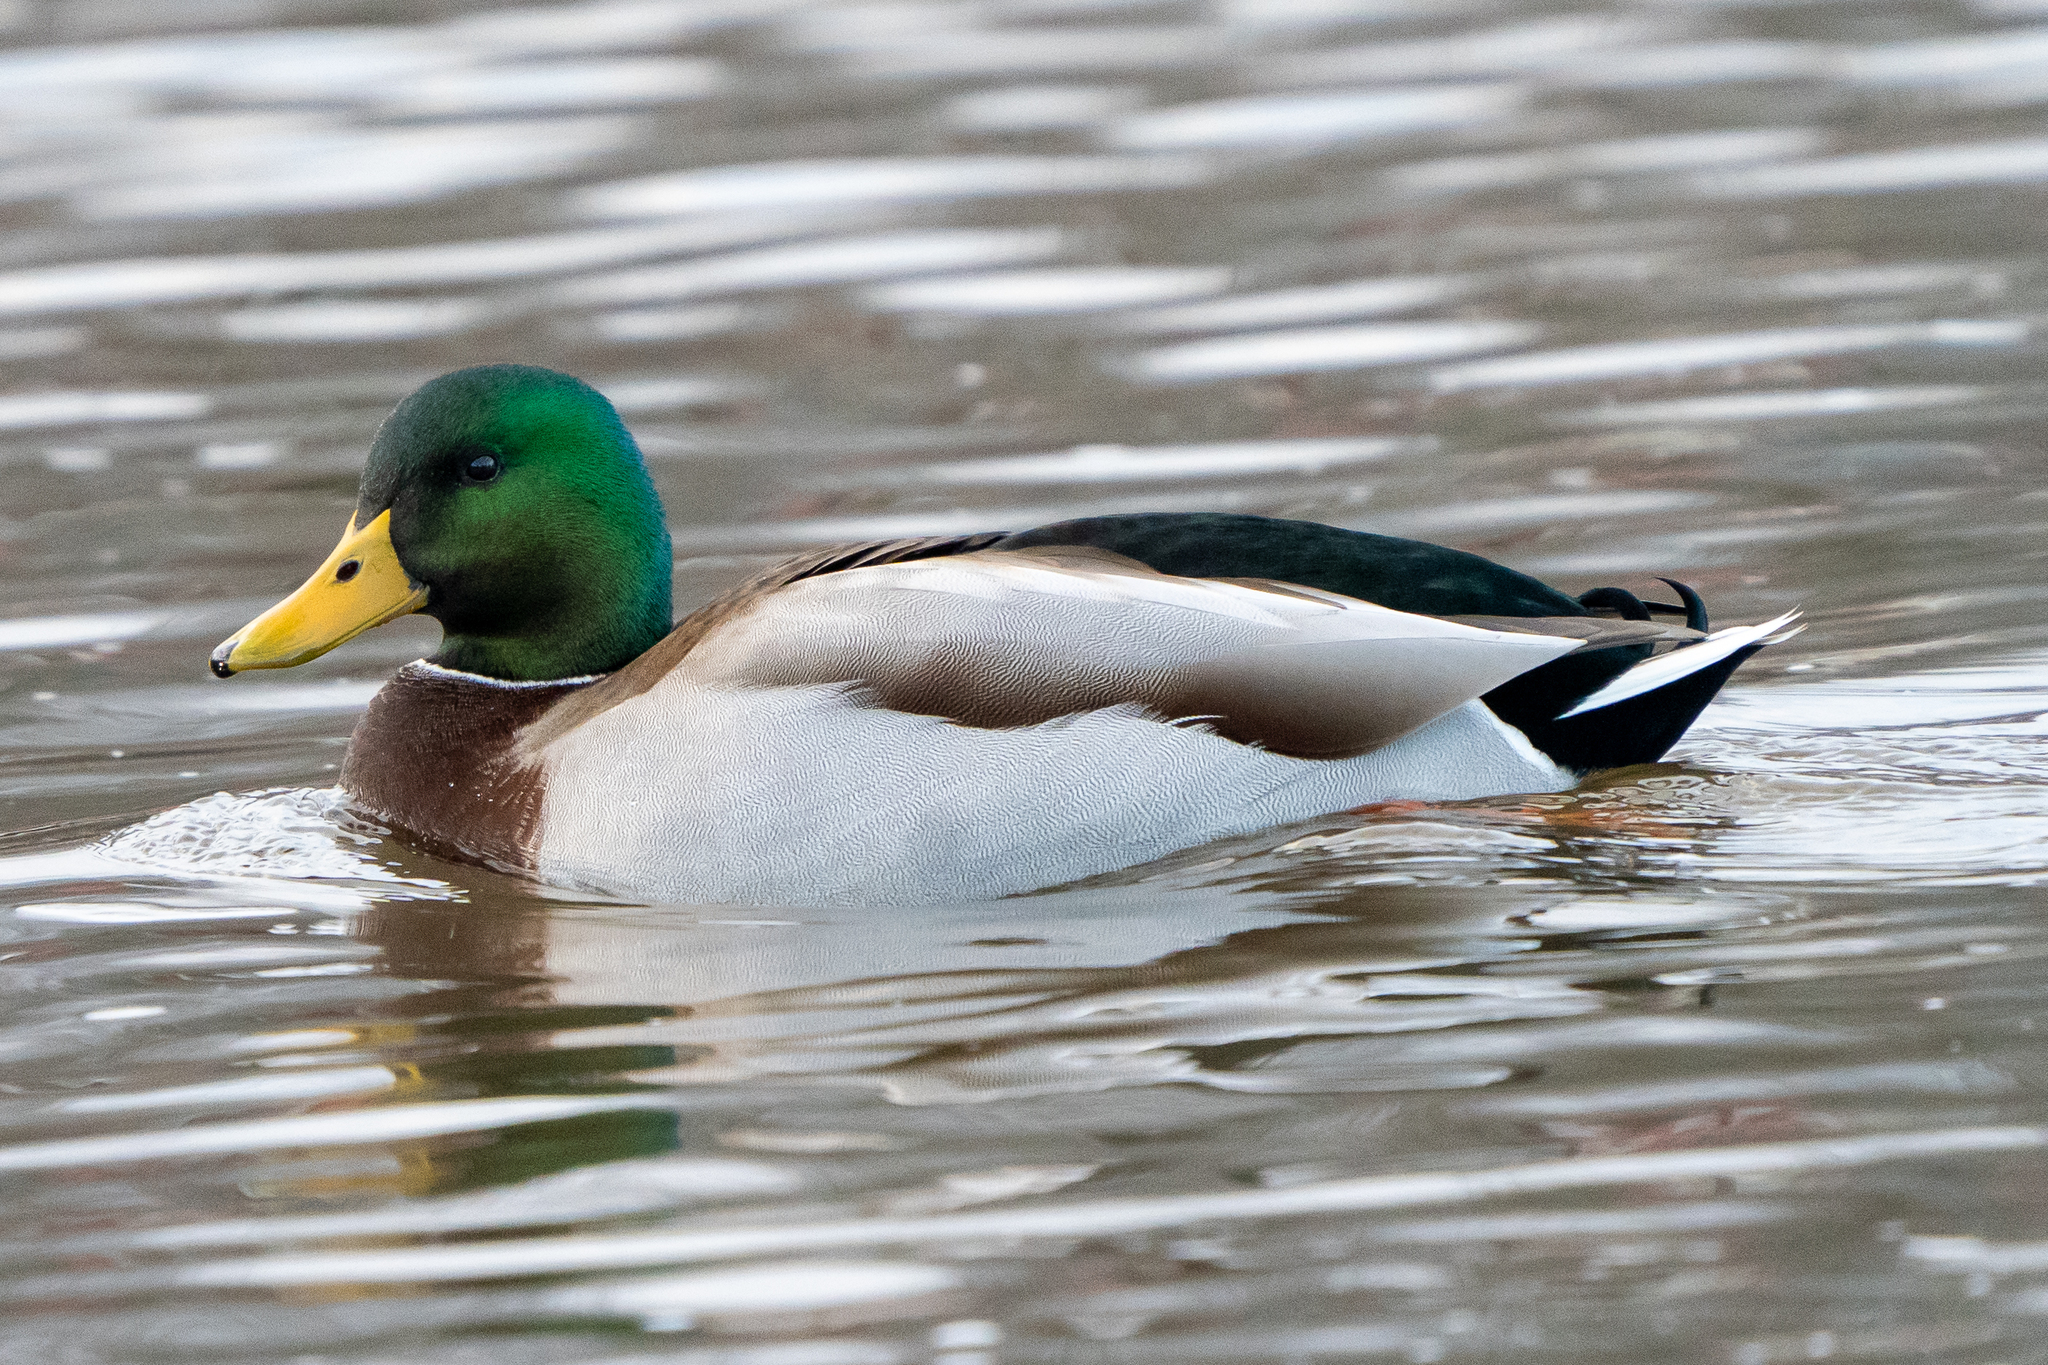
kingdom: Animalia
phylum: Chordata
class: Aves
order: Anseriformes
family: Anatidae
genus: Anas
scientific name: Anas platyrhynchos
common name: Mallard
